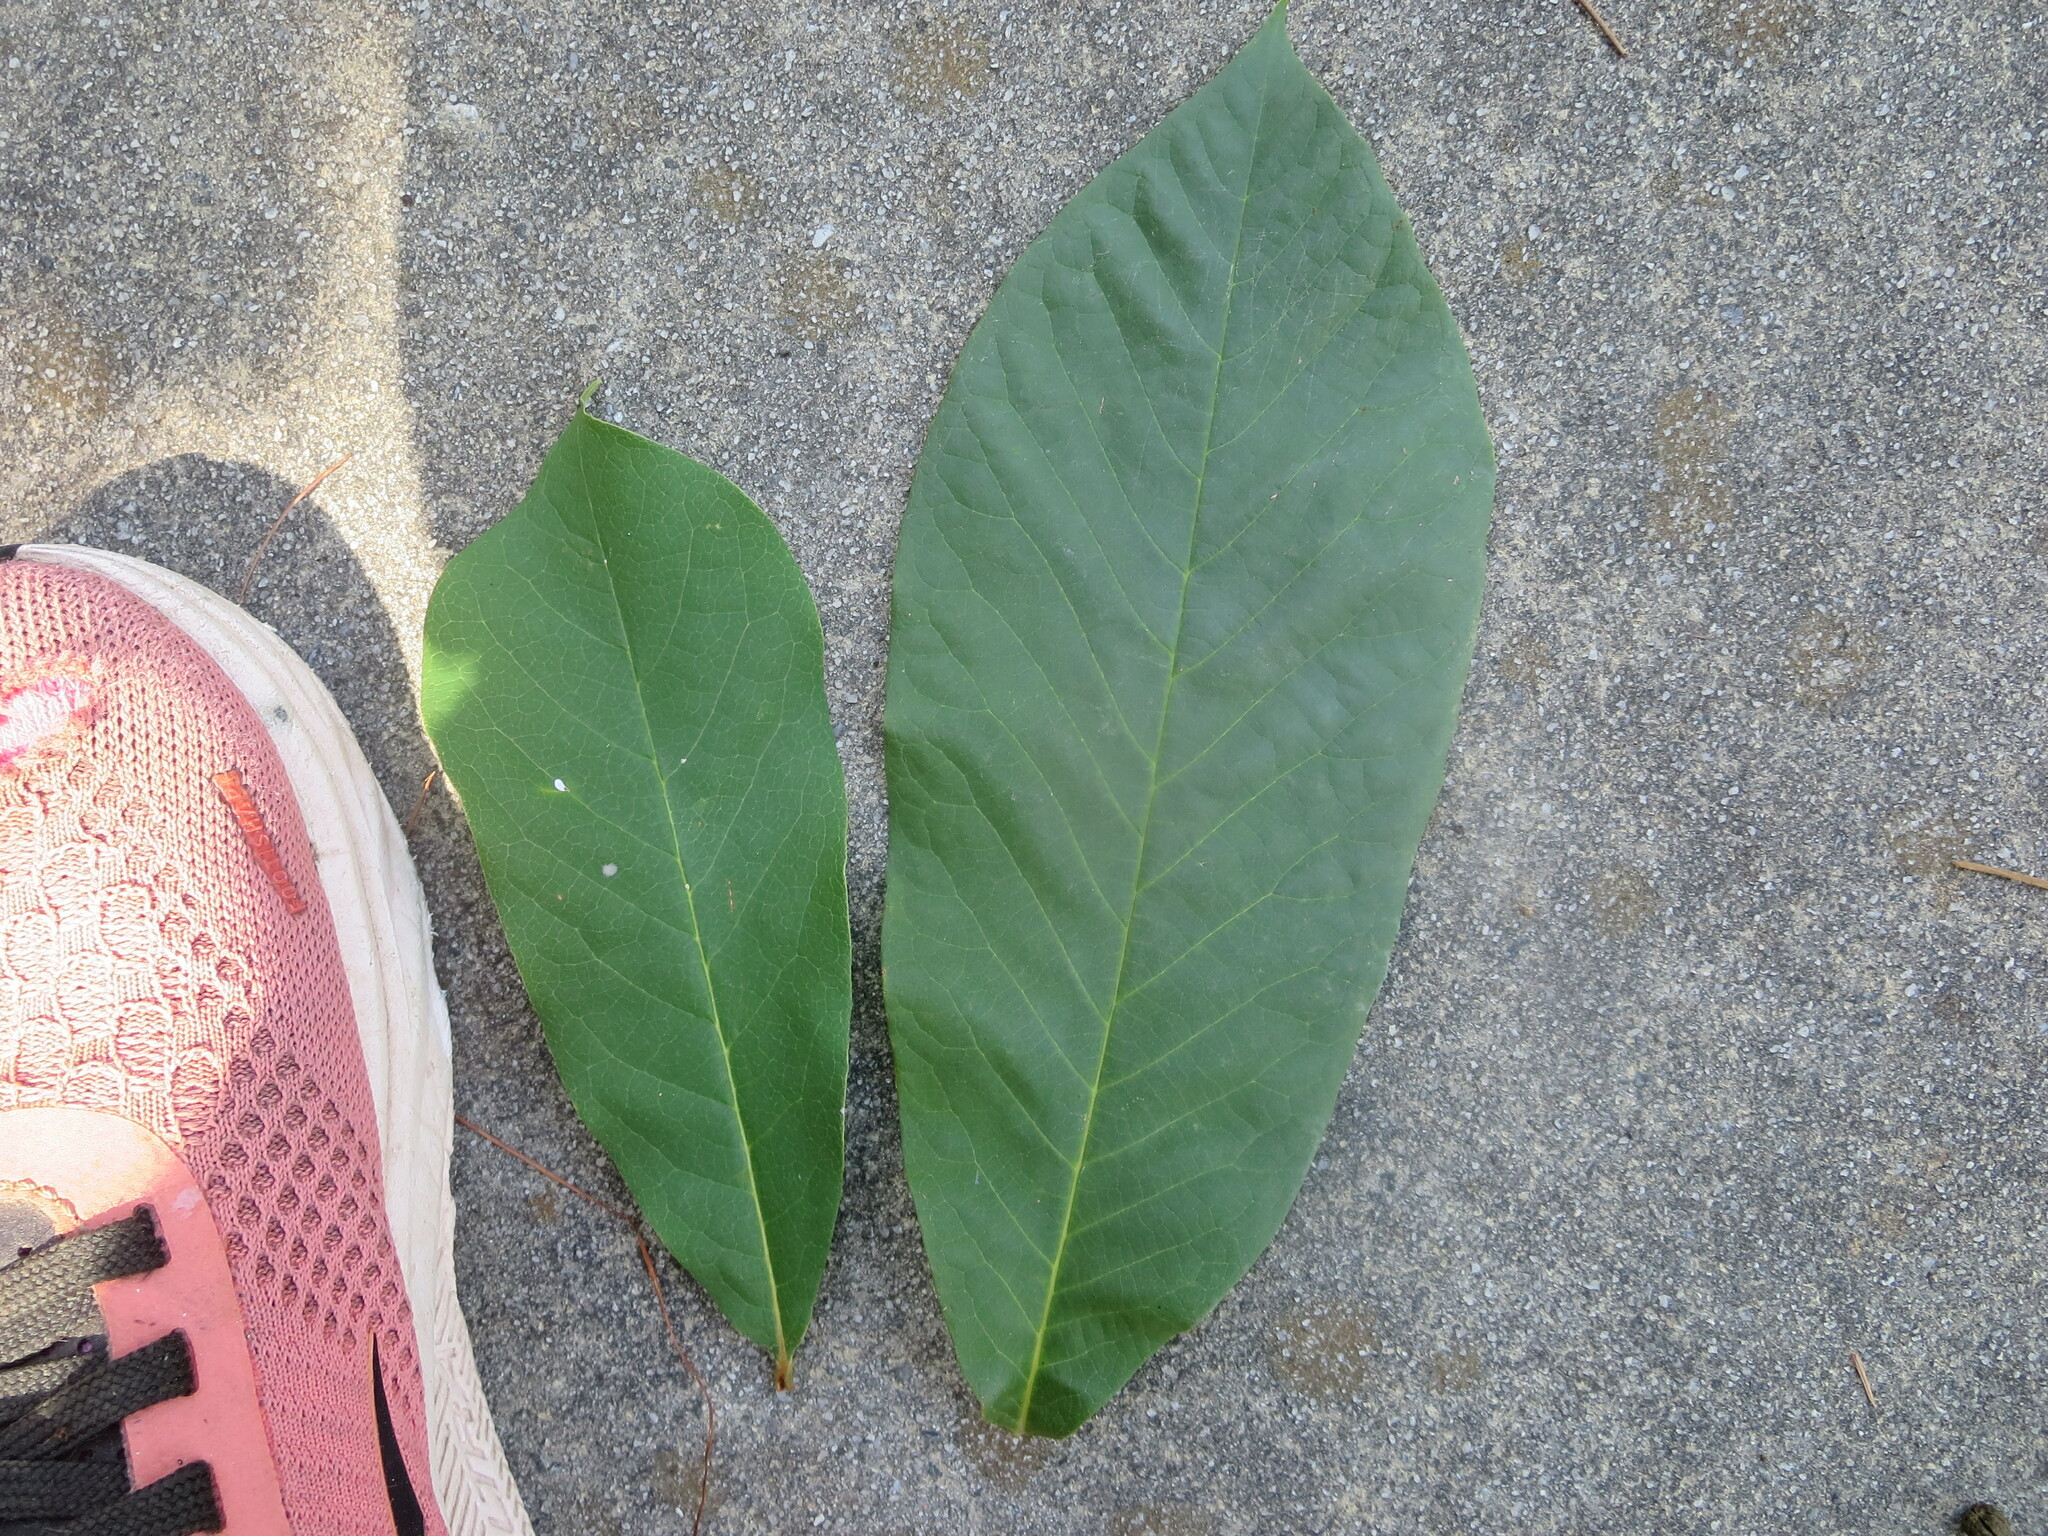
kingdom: Plantae
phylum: Tracheophyta
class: Magnoliopsida
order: Magnoliales
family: Annonaceae
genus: Asimina
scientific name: Asimina parviflora
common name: Dwarf pawpaw
